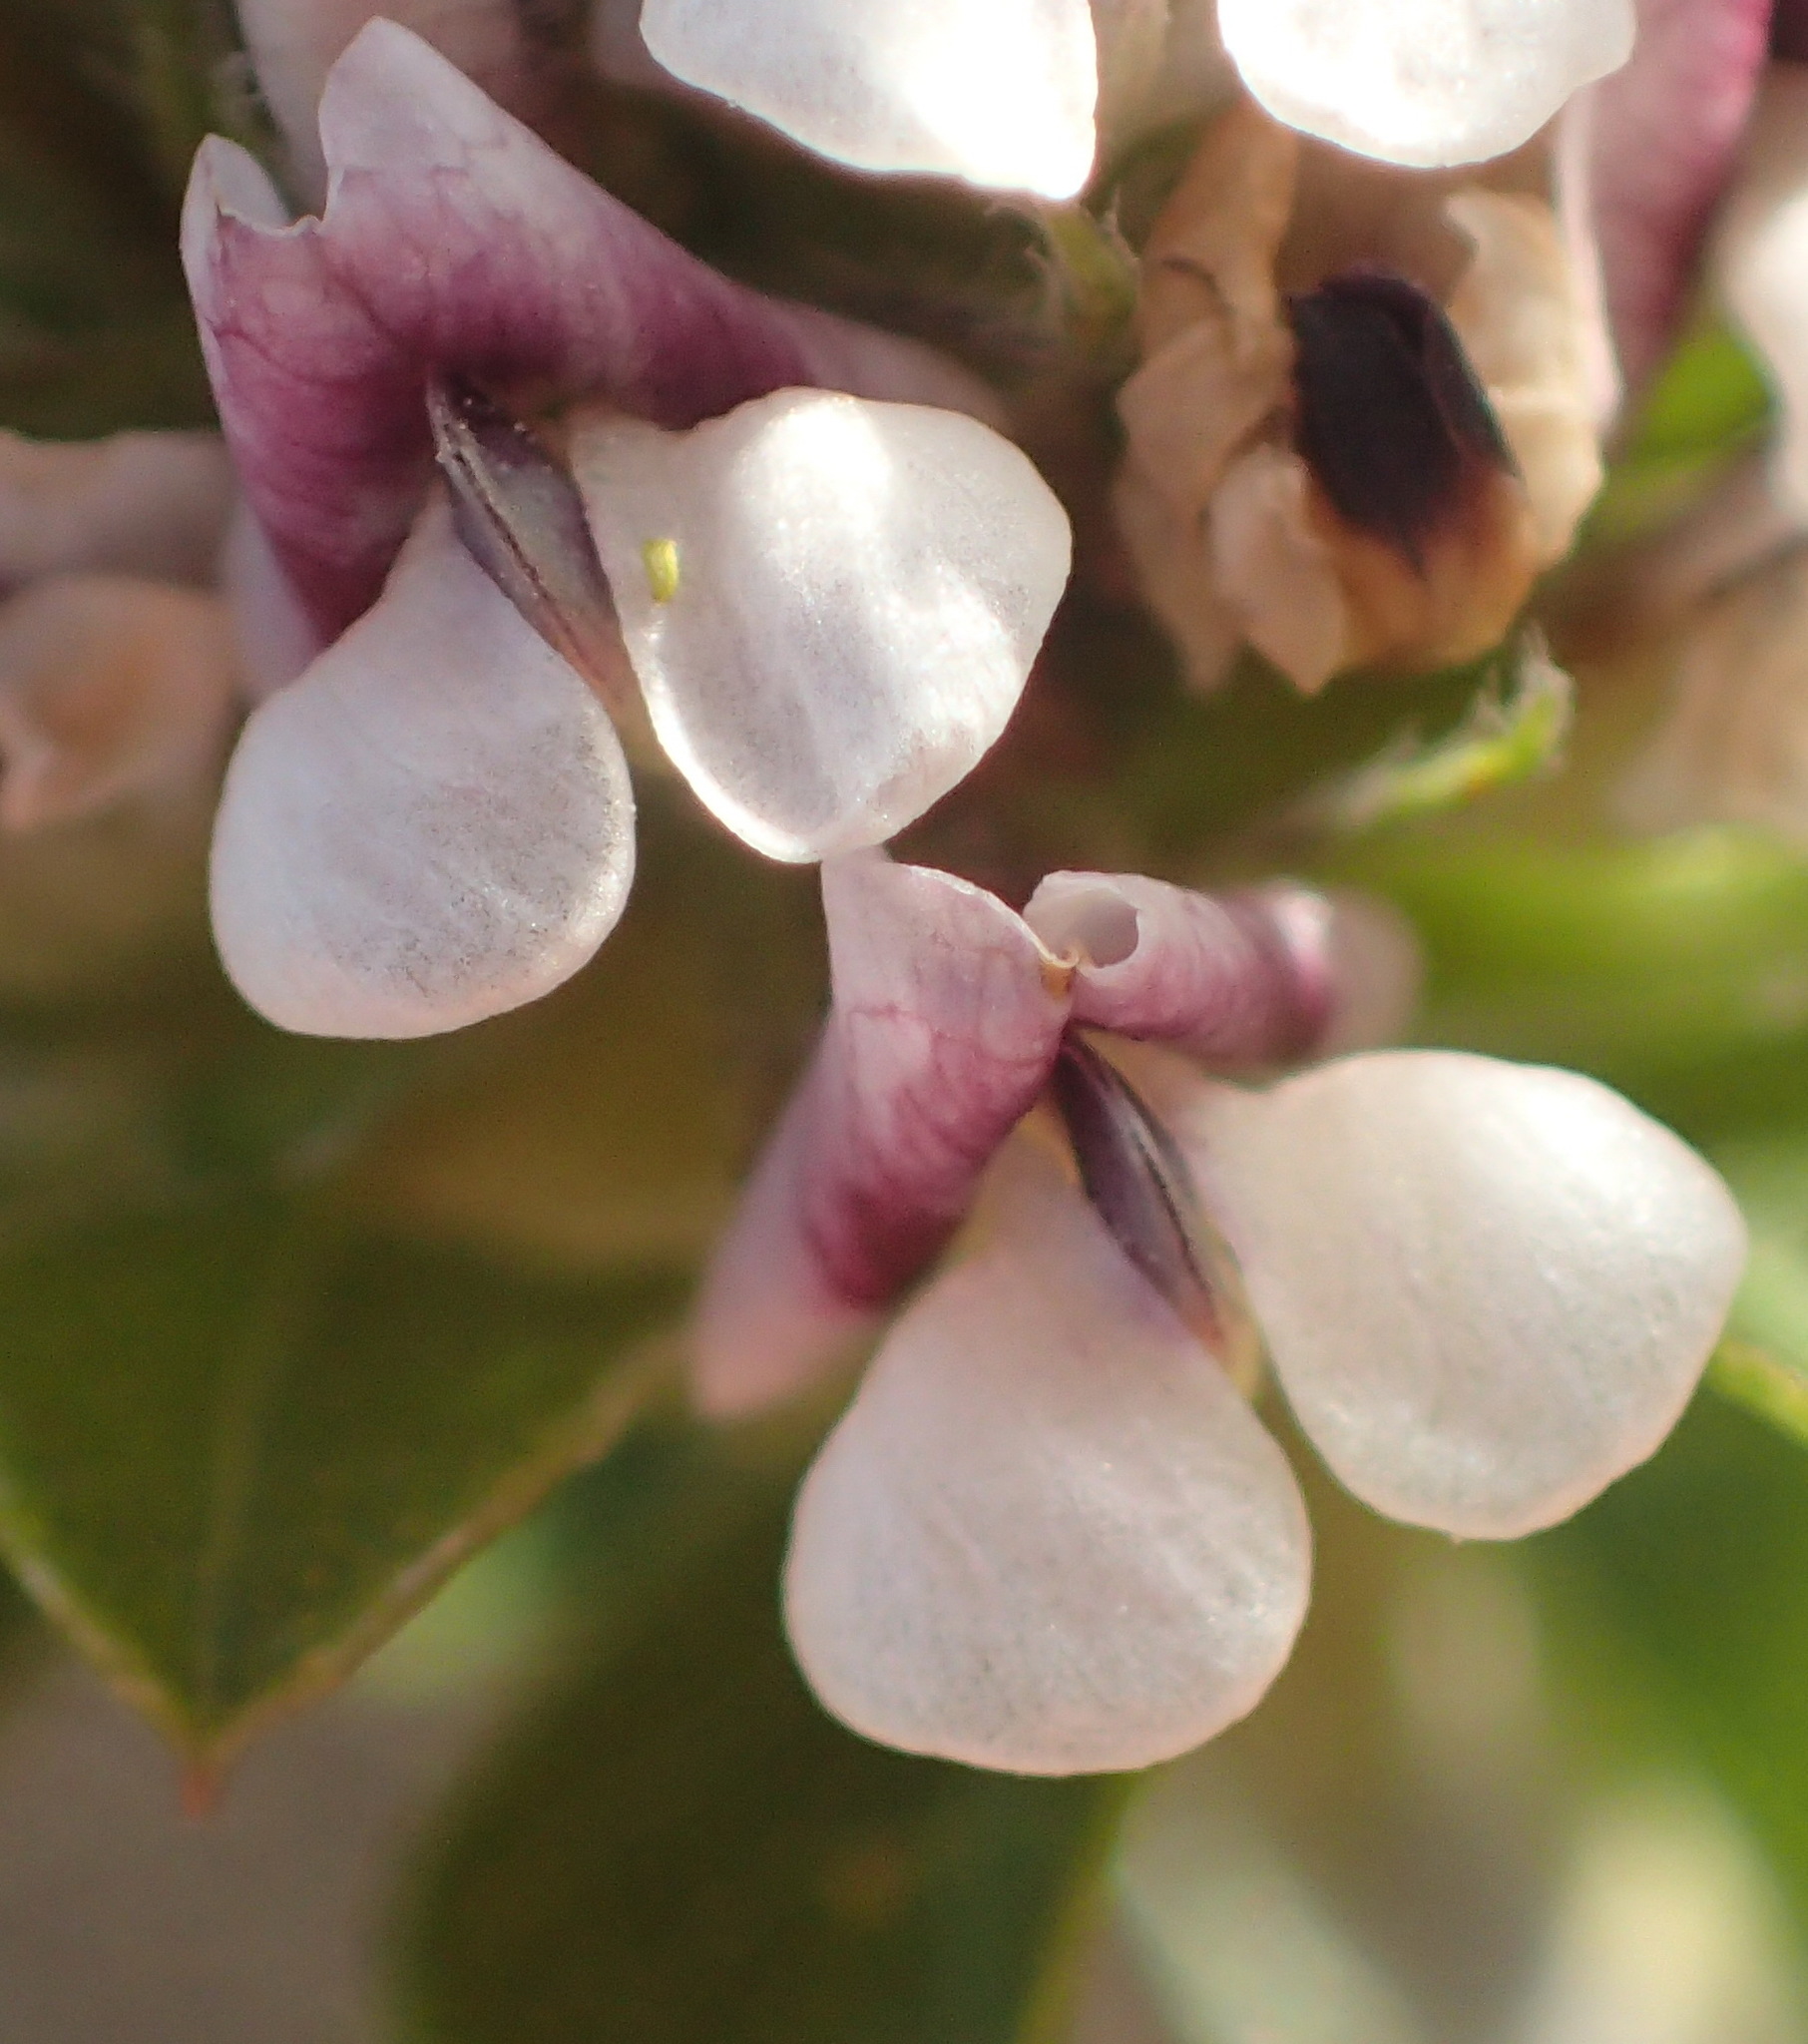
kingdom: Plantae
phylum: Tracheophyta
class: Magnoliopsida
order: Fabales
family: Fabaceae
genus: Psoralea
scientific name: Psoralea stachyera
